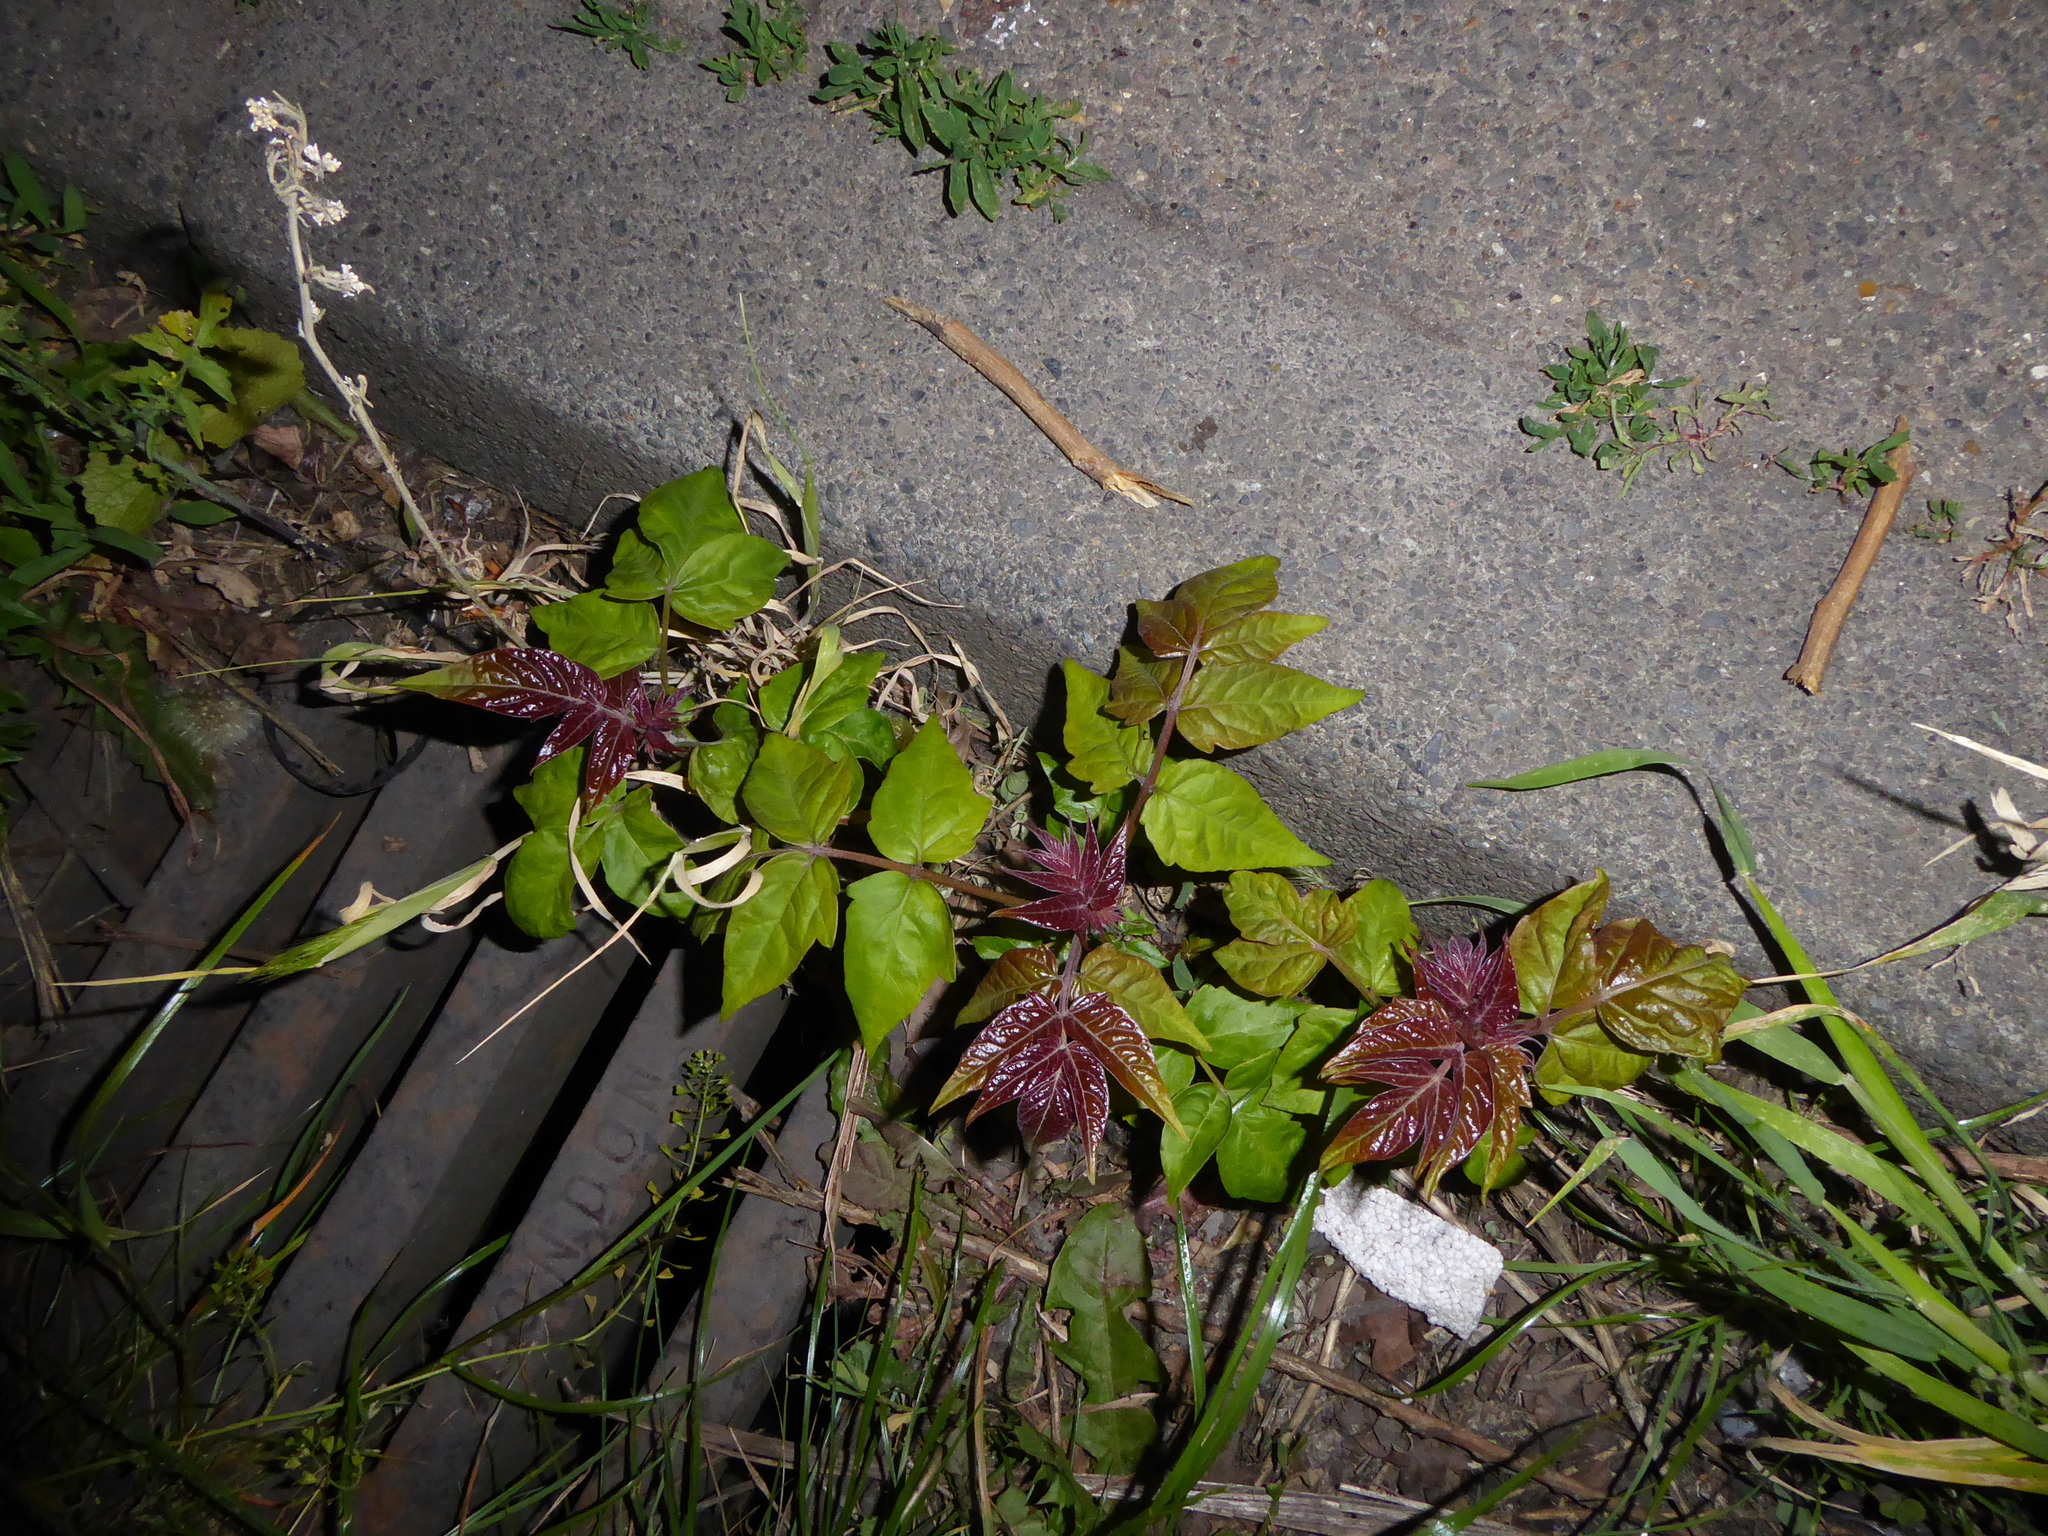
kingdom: Plantae
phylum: Tracheophyta
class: Magnoliopsida
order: Sapindales
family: Simaroubaceae
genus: Ailanthus
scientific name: Ailanthus altissima
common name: Tree-of-heaven
